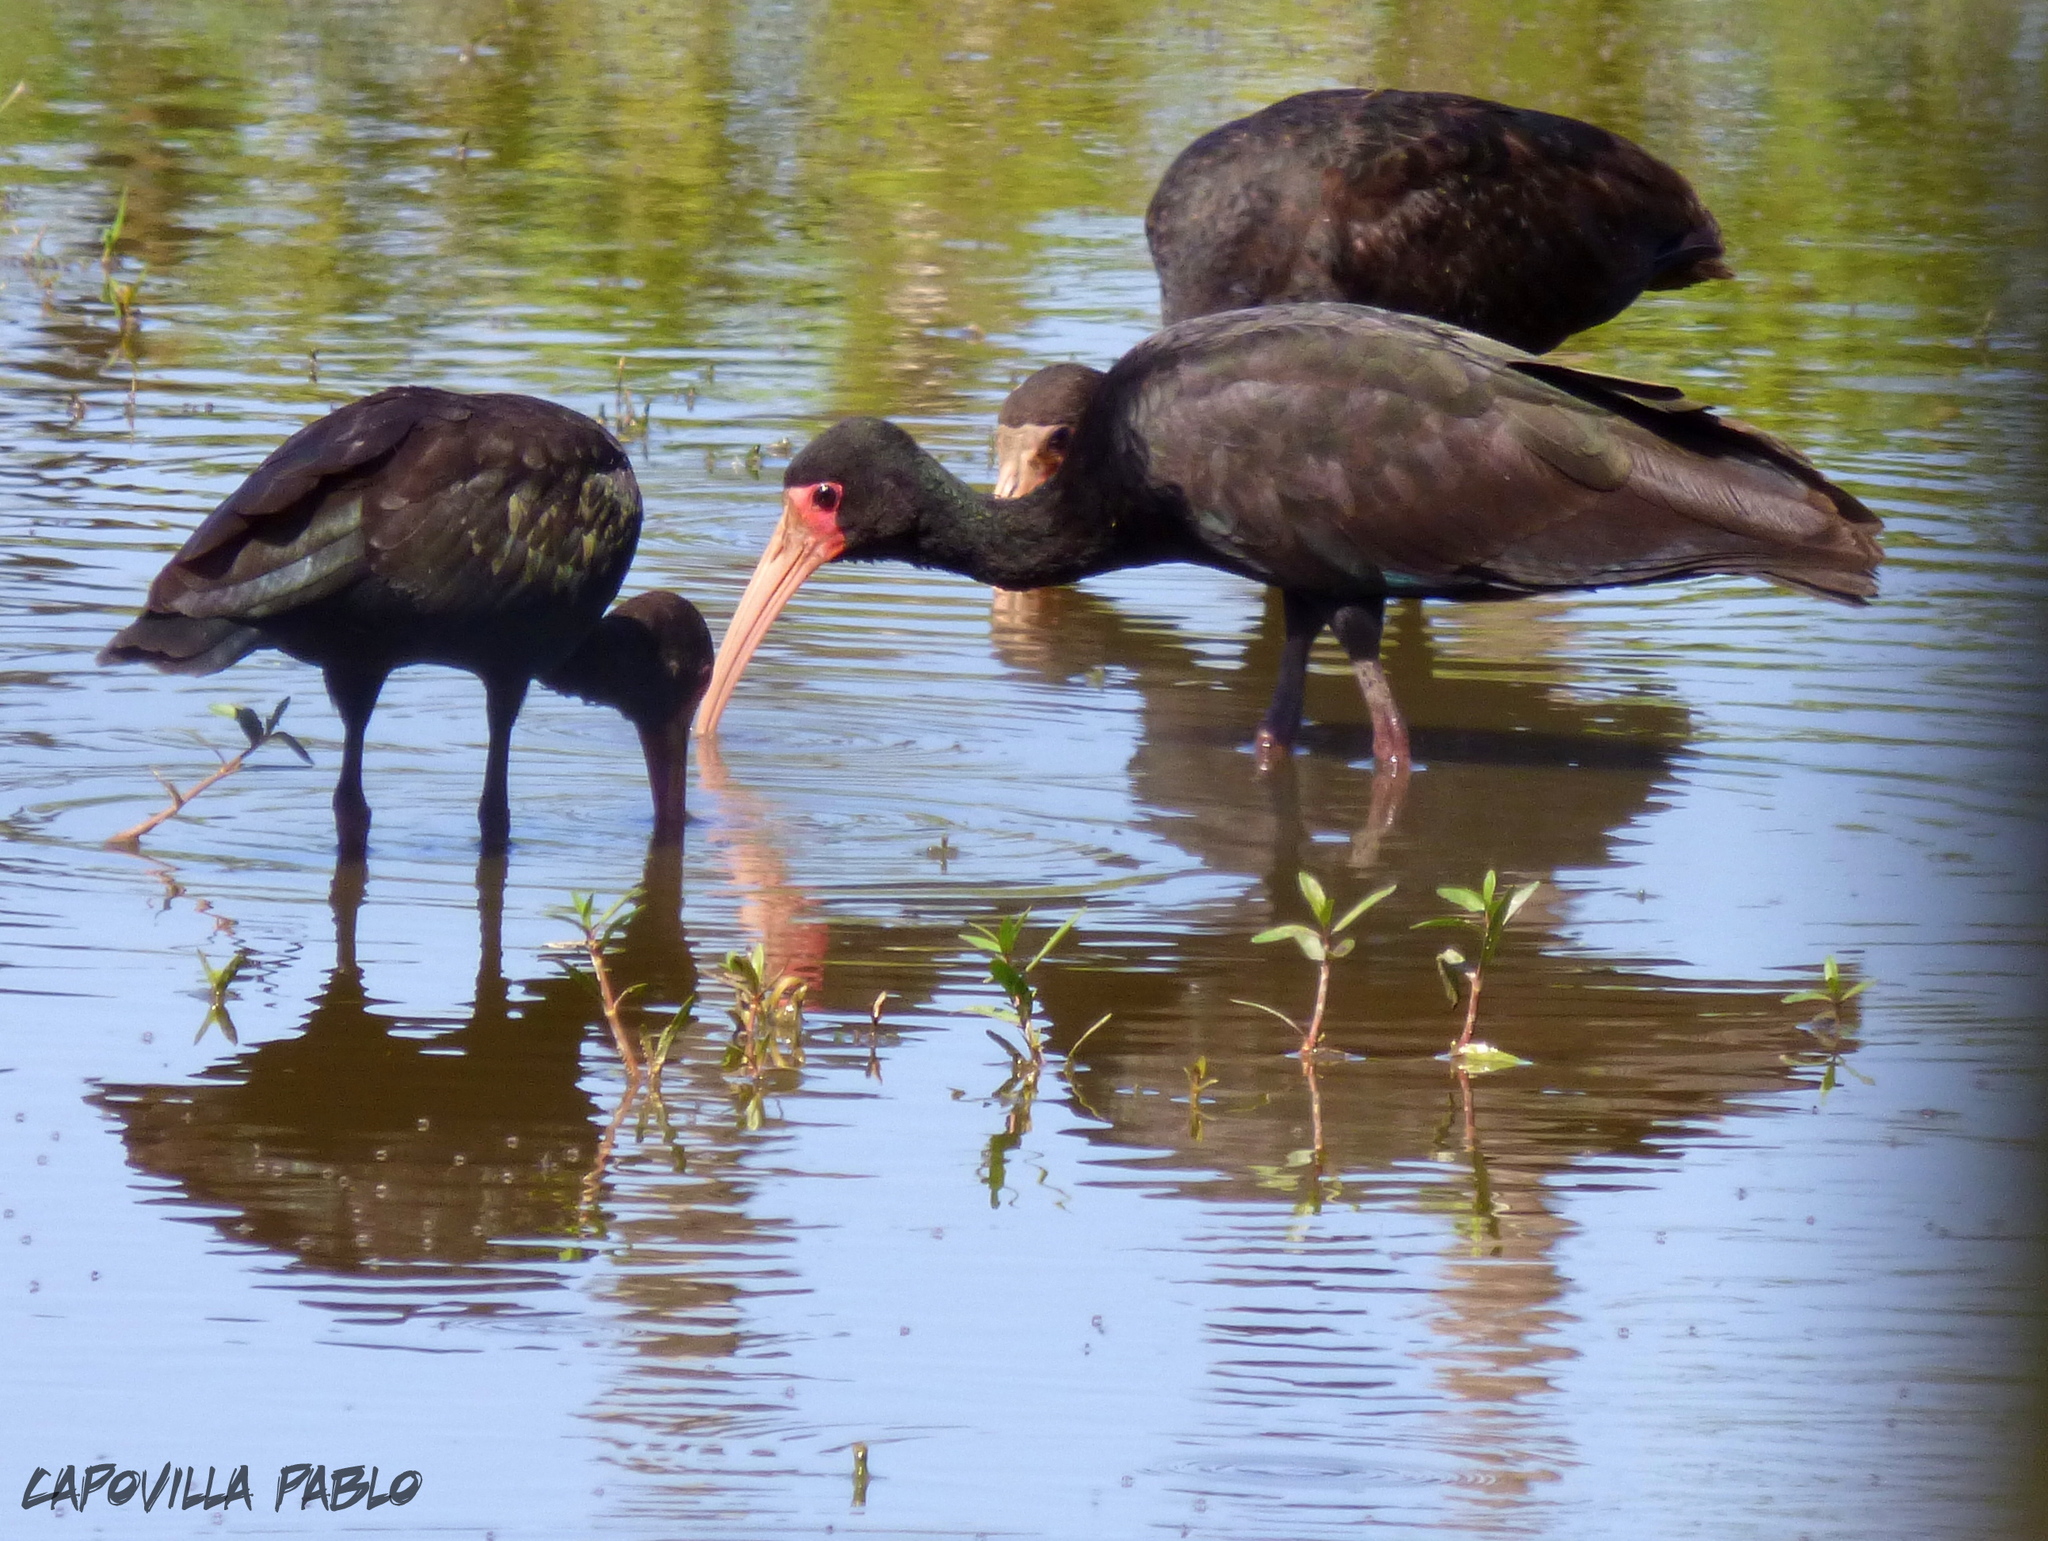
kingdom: Animalia
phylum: Chordata
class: Aves
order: Pelecaniformes
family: Threskiornithidae
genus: Phimosus
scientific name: Phimosus infuscatus
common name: Bare-faced ibis
